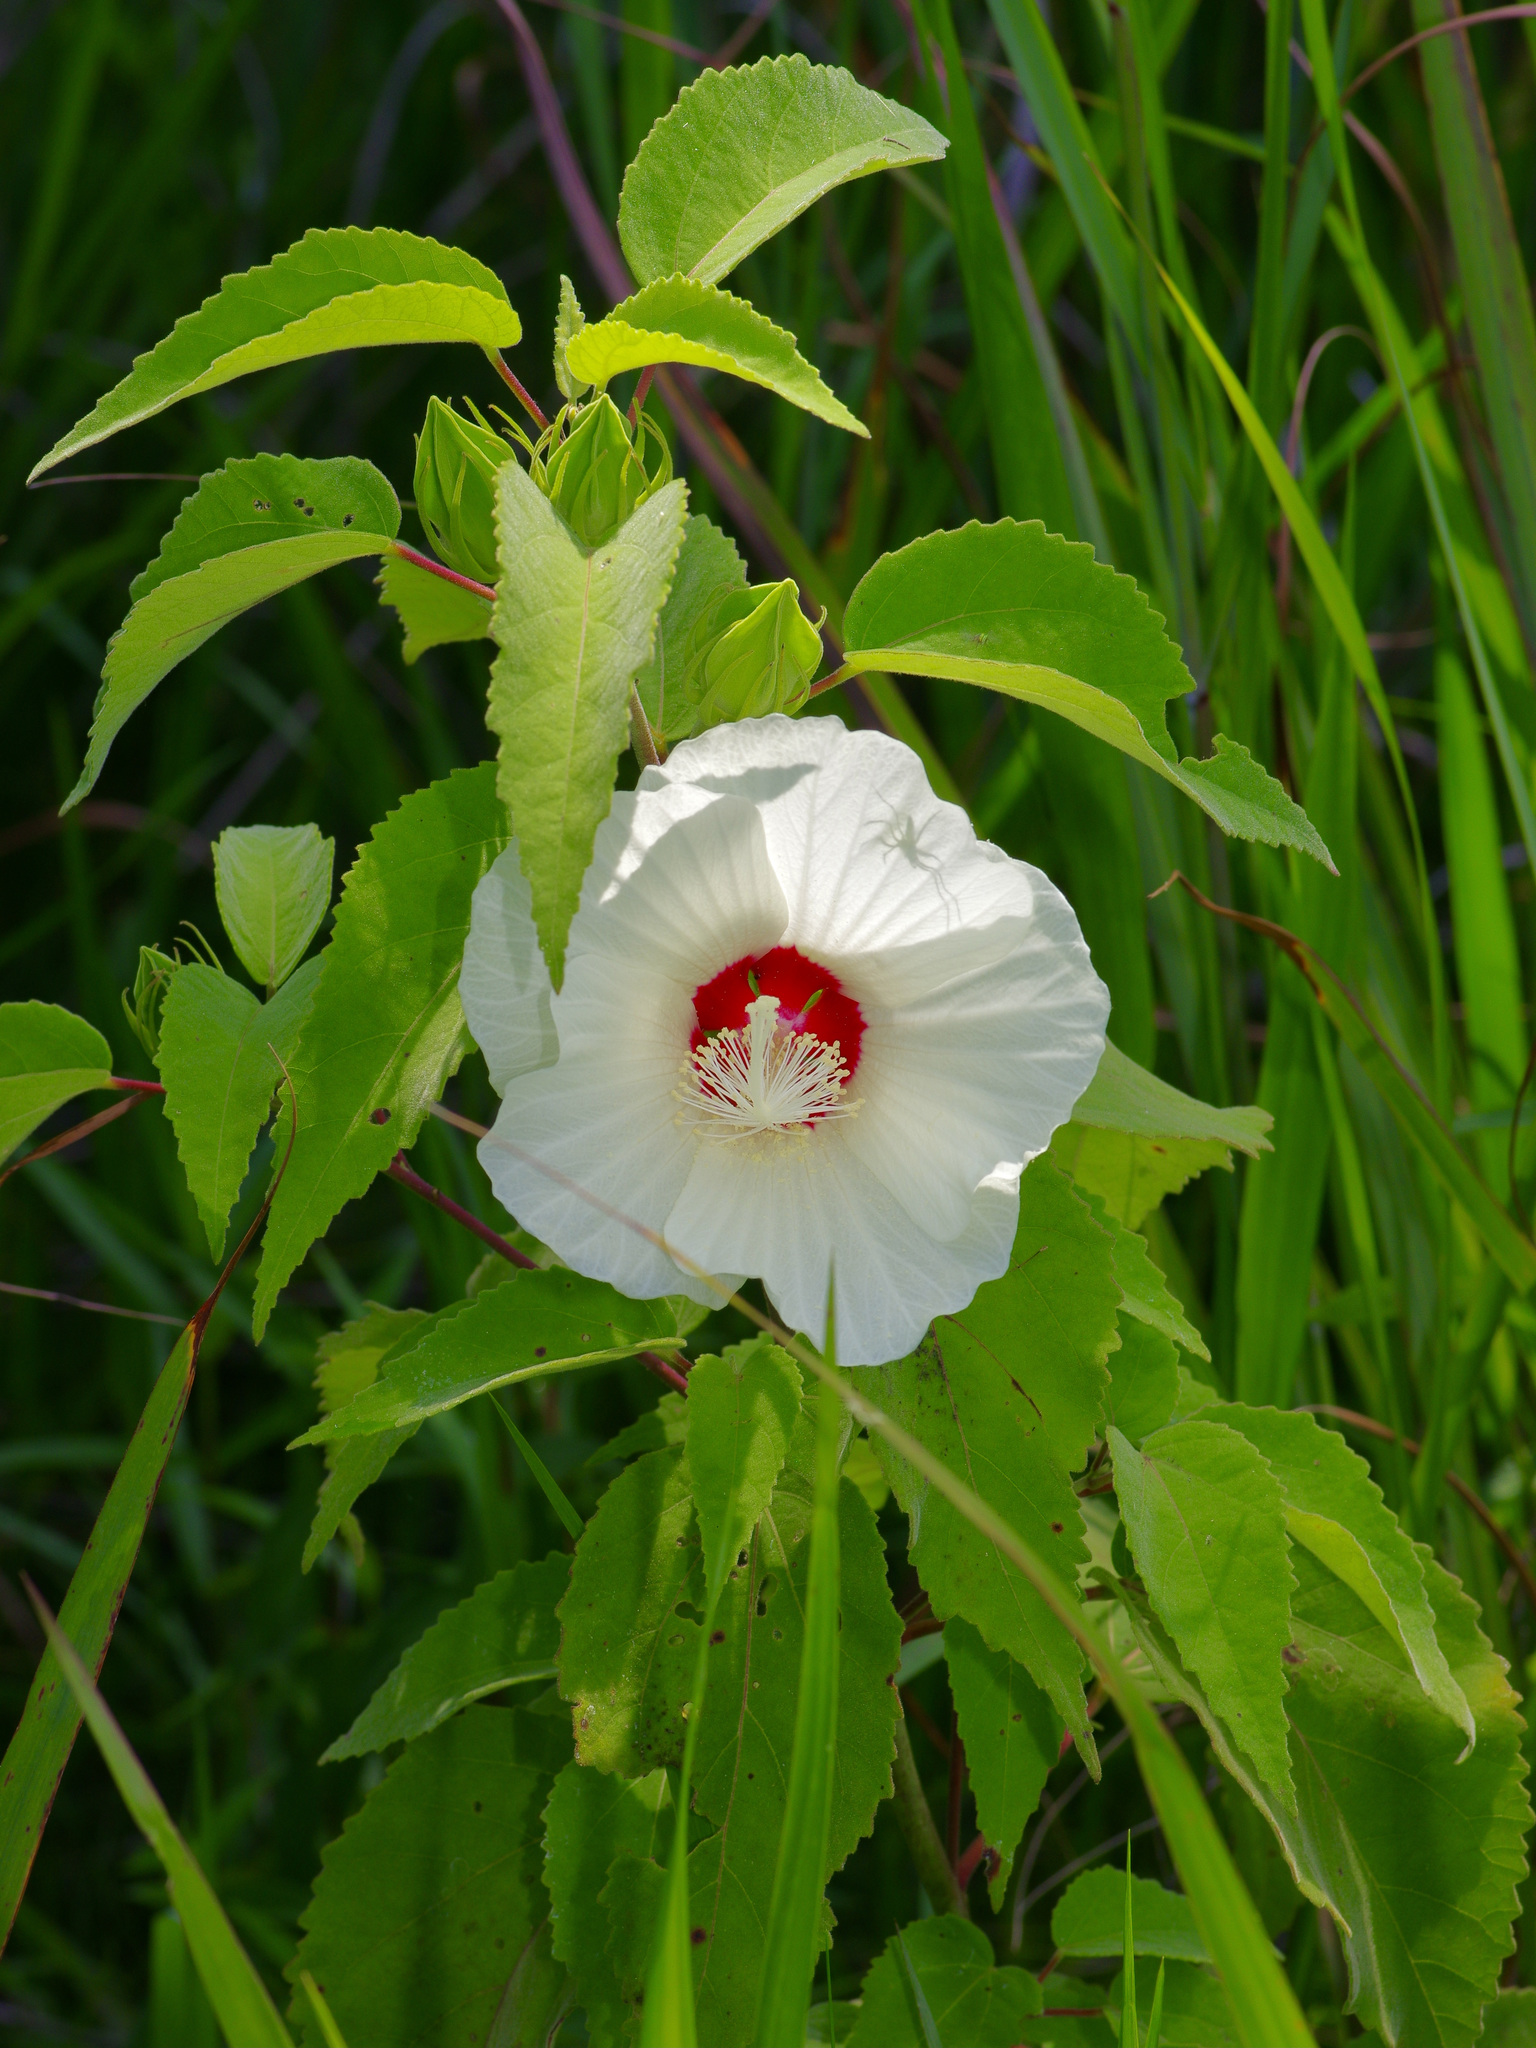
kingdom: Plantae
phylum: Tracheophyta
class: Magnoliopsida
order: Malvales
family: Malvaceae
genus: Hibiscus
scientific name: Hibiscus moscheutos
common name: Common rose-mallow
